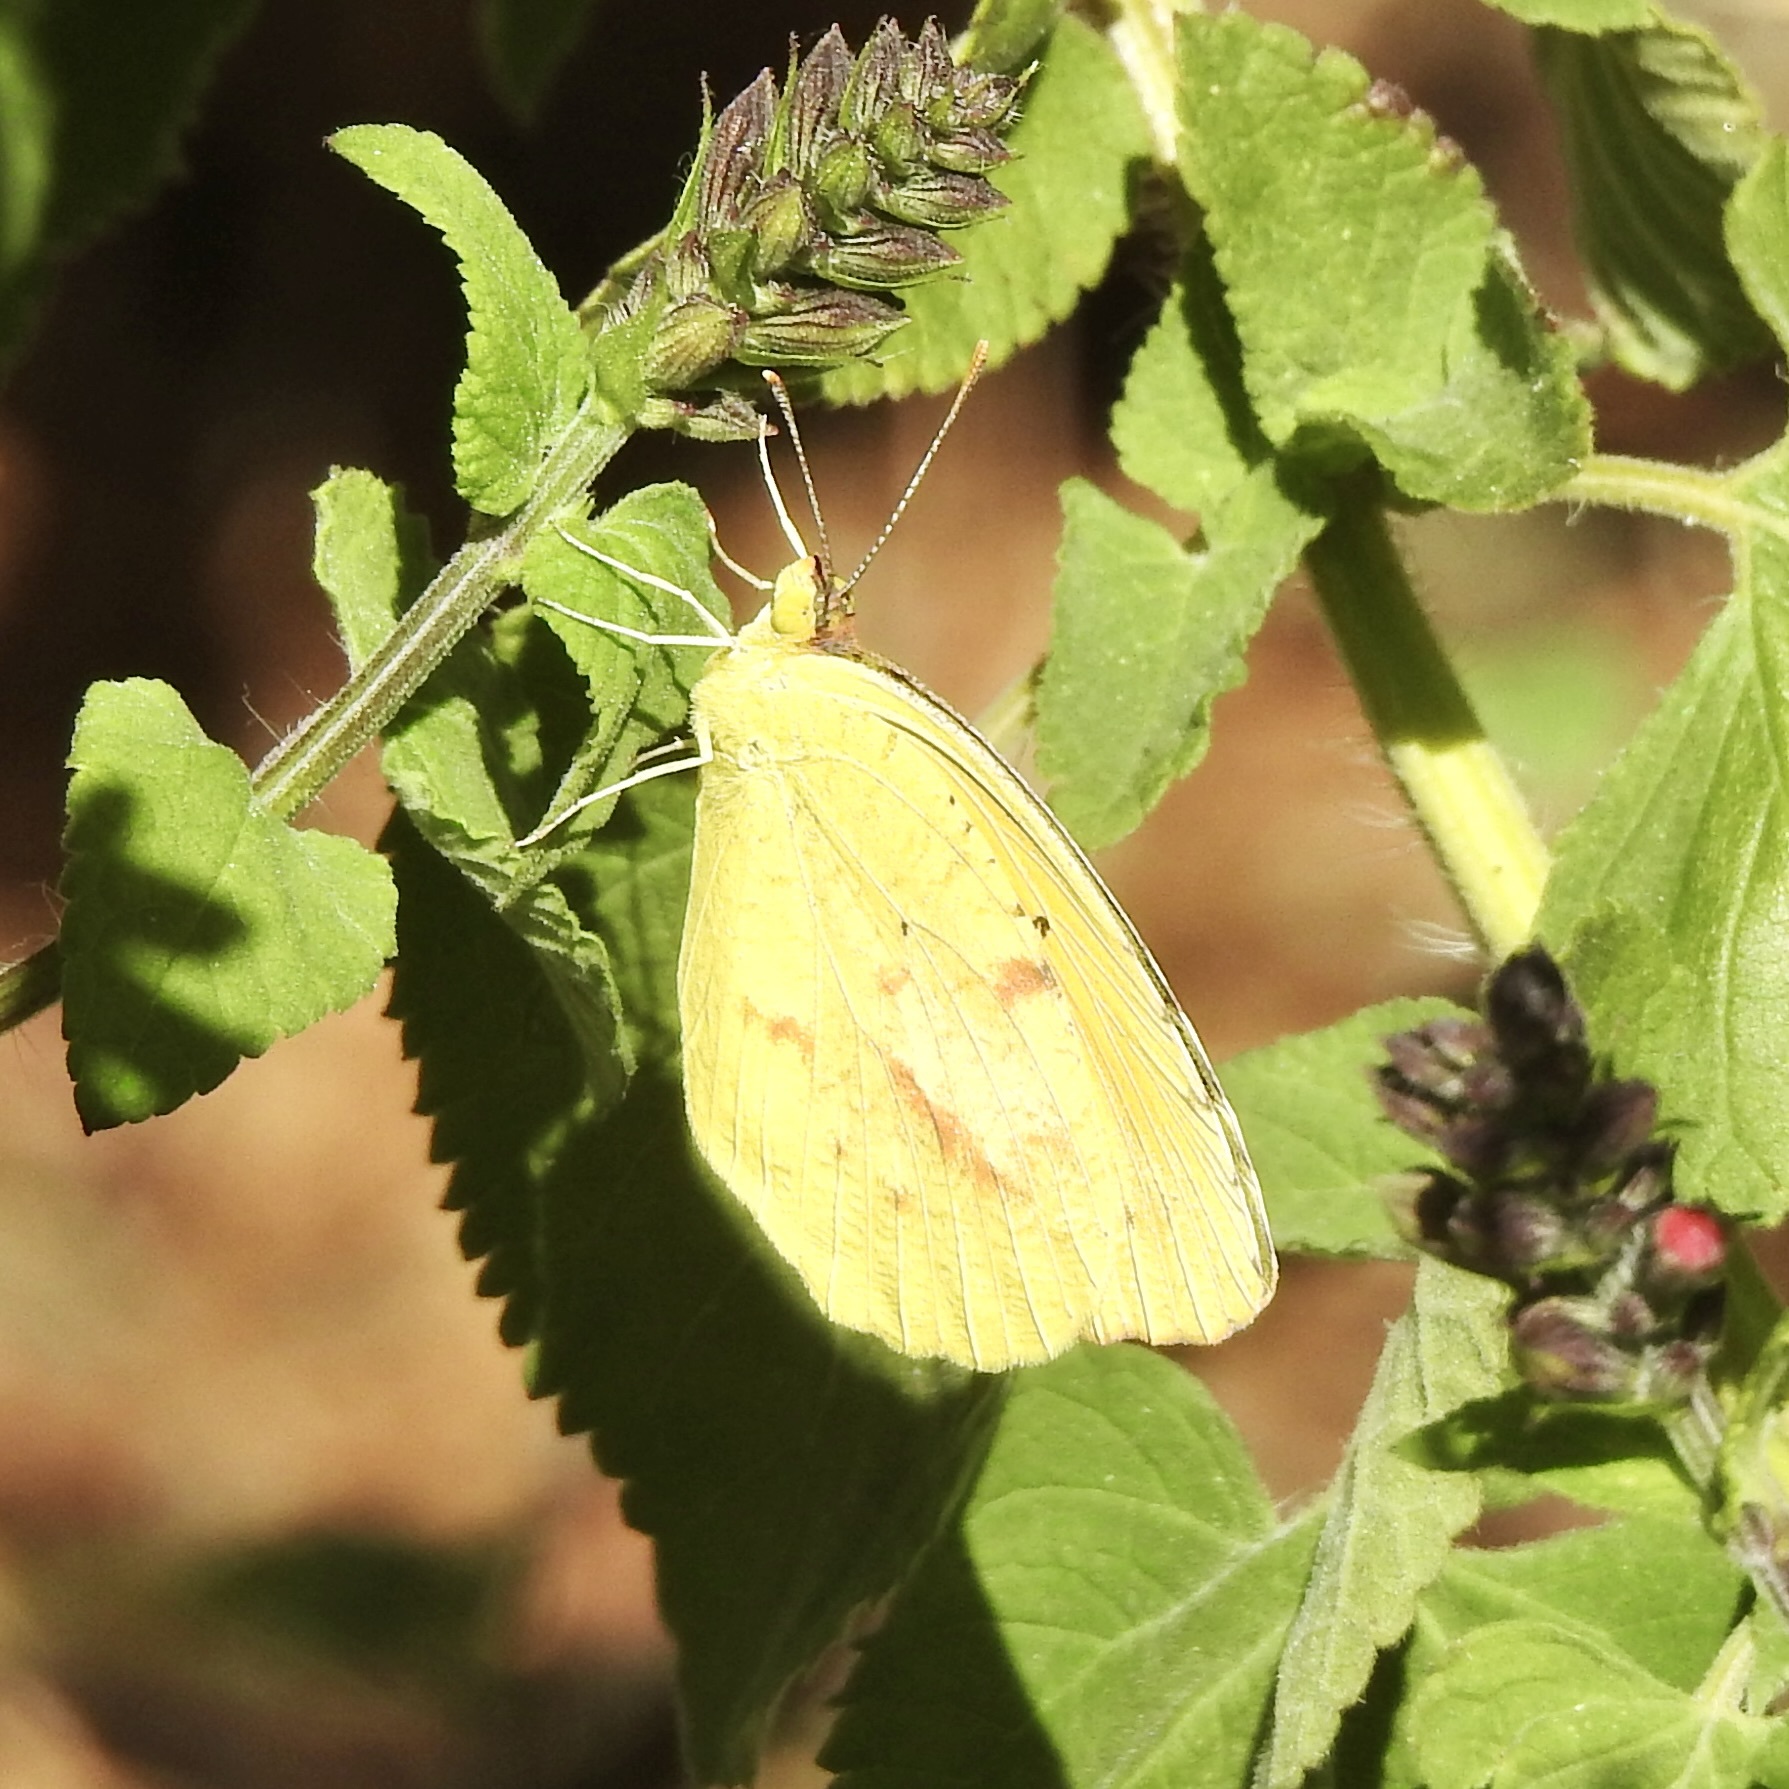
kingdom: Animalia
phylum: Arthropoda
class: Insecta
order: Lepidoptera
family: Pieridae
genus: Abaeis
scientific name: Abaeis nicippe
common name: Sleepy orange
